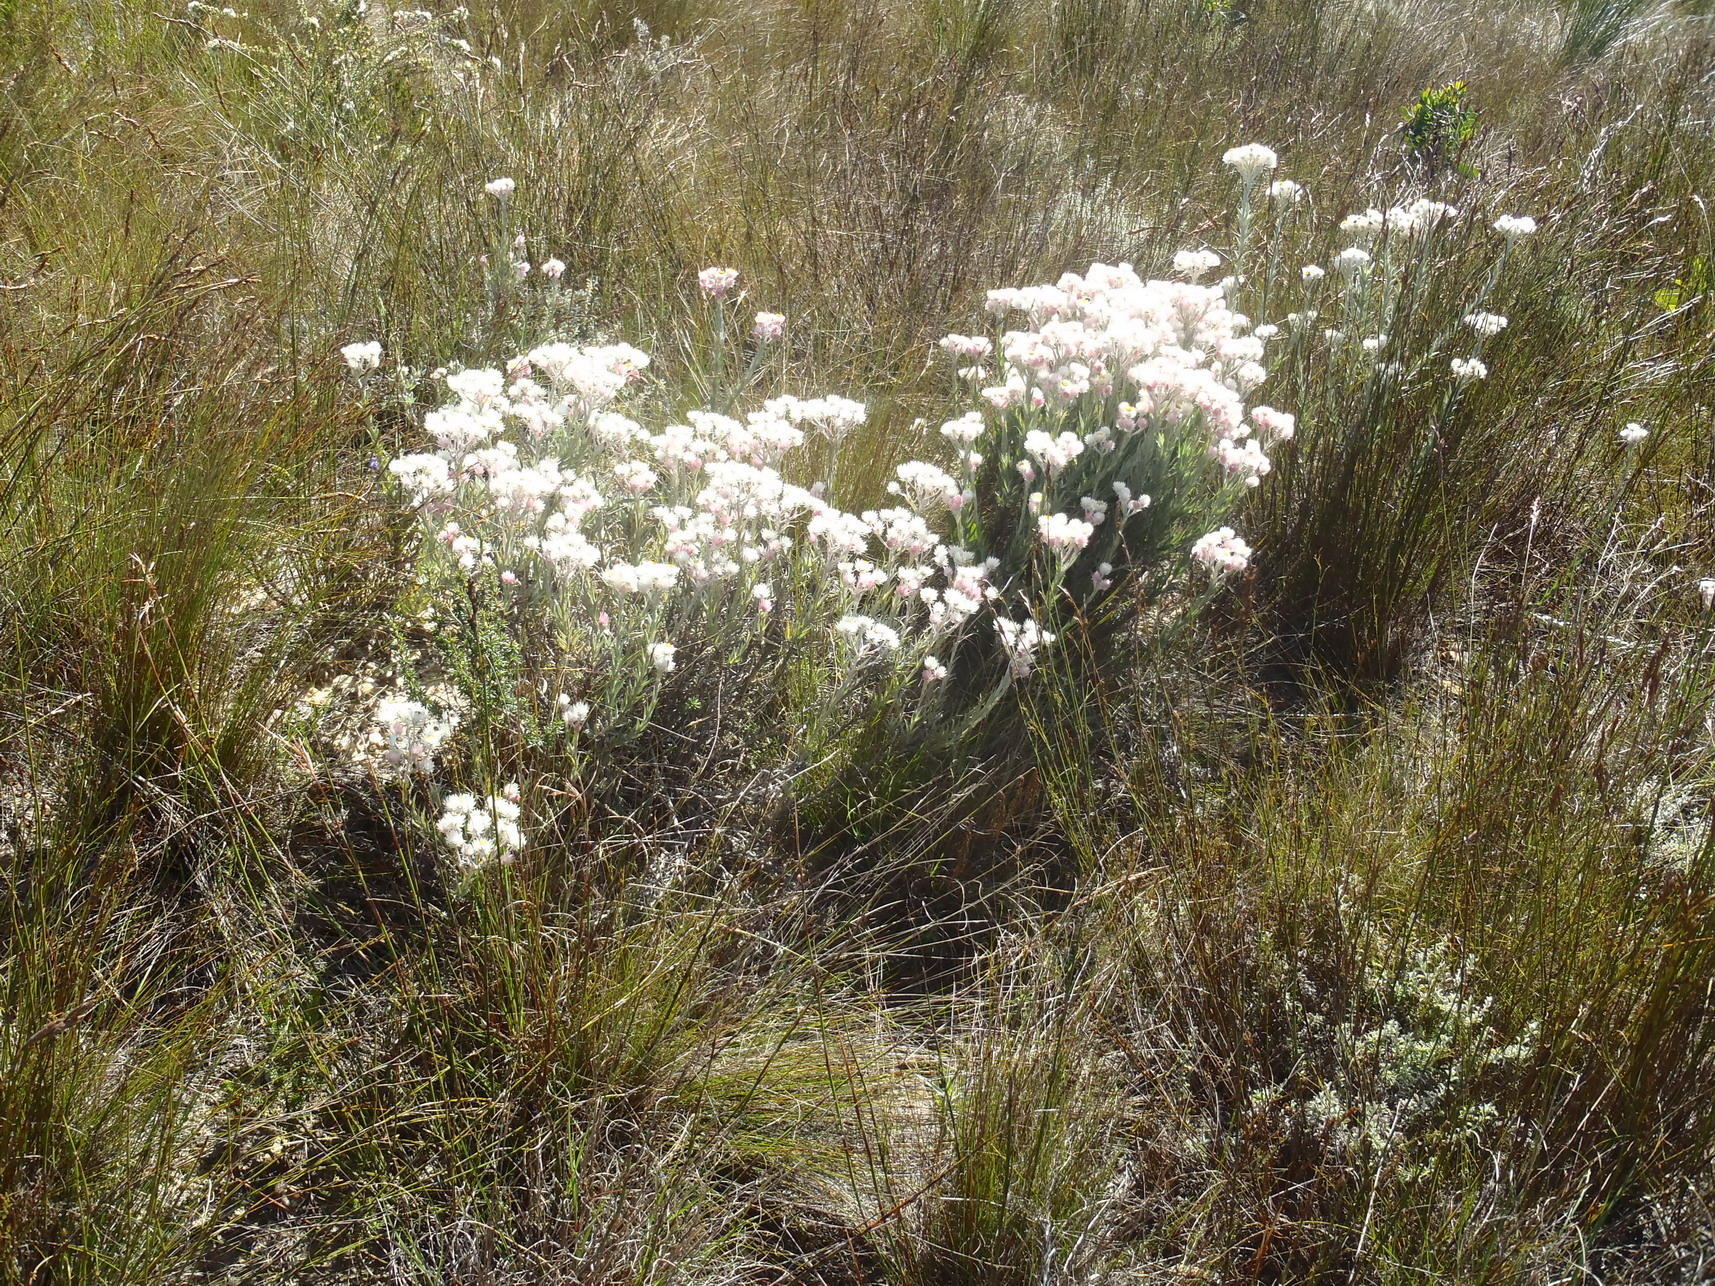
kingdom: Plantae
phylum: Tracheophyta
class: Magnoliopsida
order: Asterales
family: Asteraceae
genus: Achyranthemum
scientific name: Achyranthemum paniculatum
